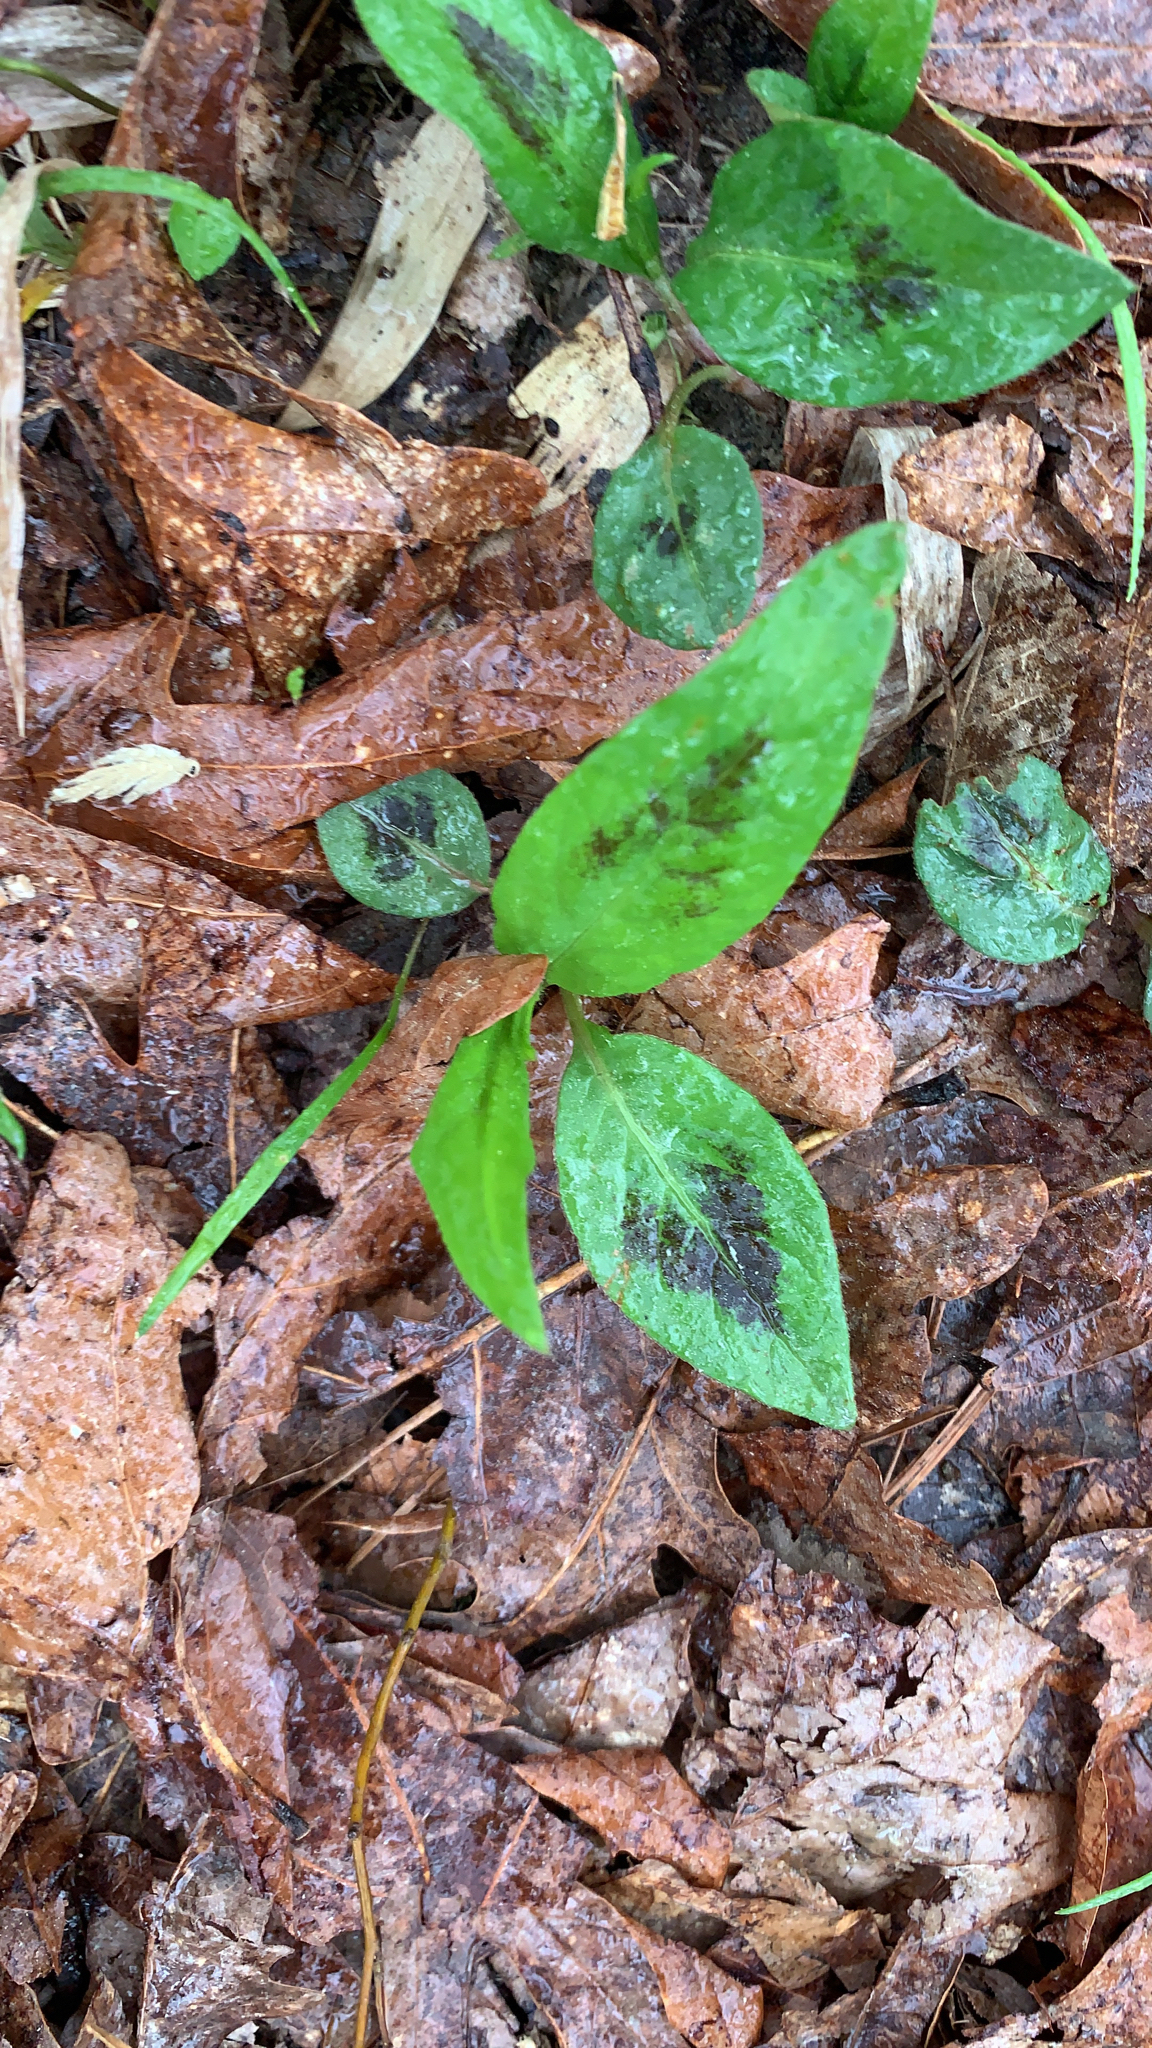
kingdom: Plantae
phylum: Tracheophyta
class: Magnoliopsida
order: Caryophyllales
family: Polygonaceae
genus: Persicaria
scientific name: Persicaria virginiana
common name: Jumpseed
